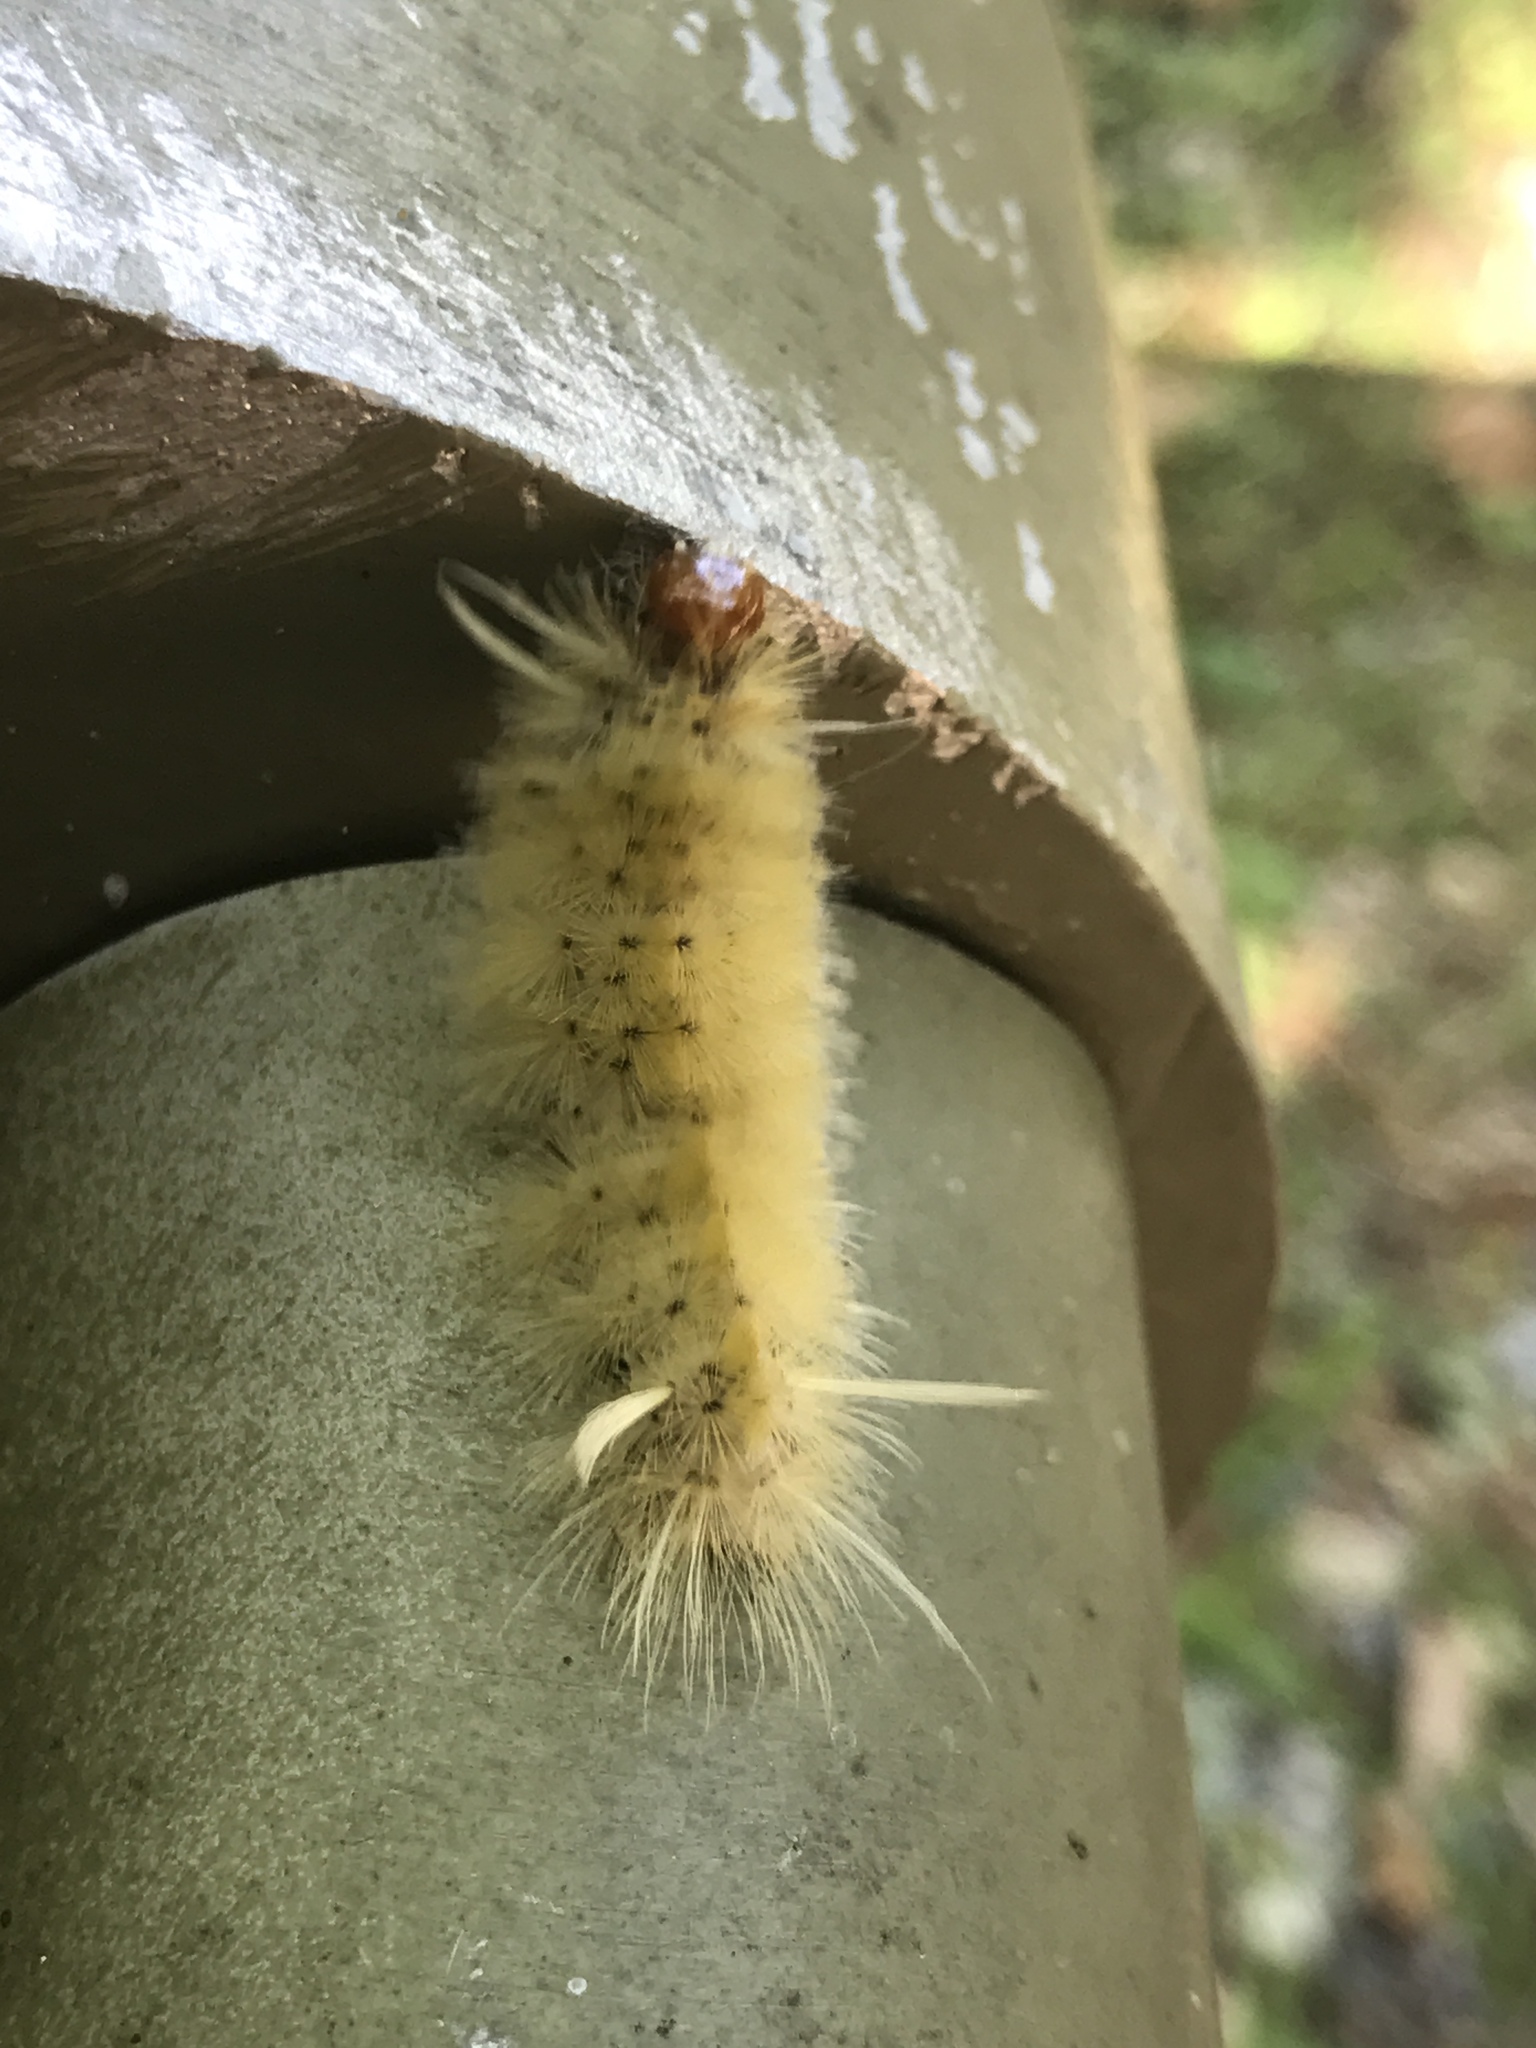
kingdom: Animalia
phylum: Arthropoda
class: Insecta
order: Lepidoptera
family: Erebidae
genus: Halysidota
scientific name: Halysidota harrisii
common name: Sycamore tussock moth
